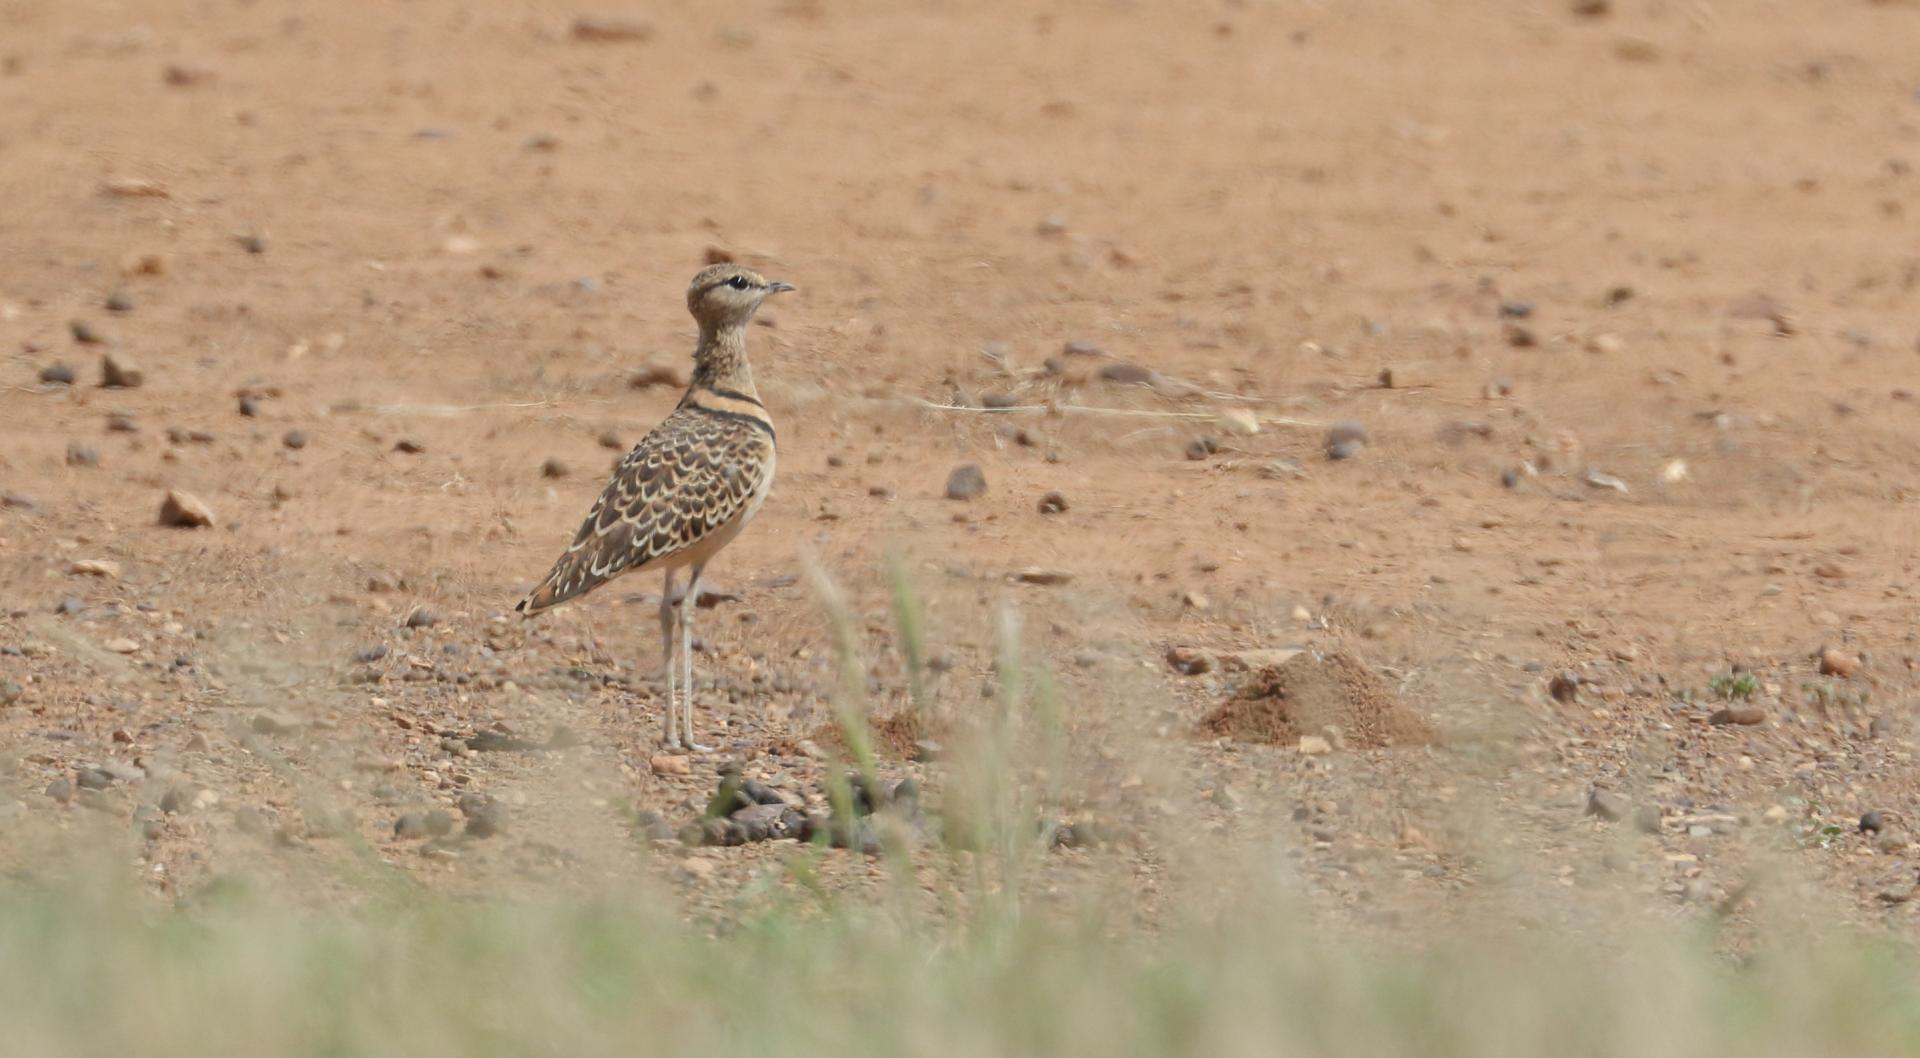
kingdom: Animalia
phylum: Chordata
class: Aves
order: Charadriiformes
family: Glareolidae
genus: Rhinoptilus
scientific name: Rhinoptilus africanus
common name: Double-banded courser
